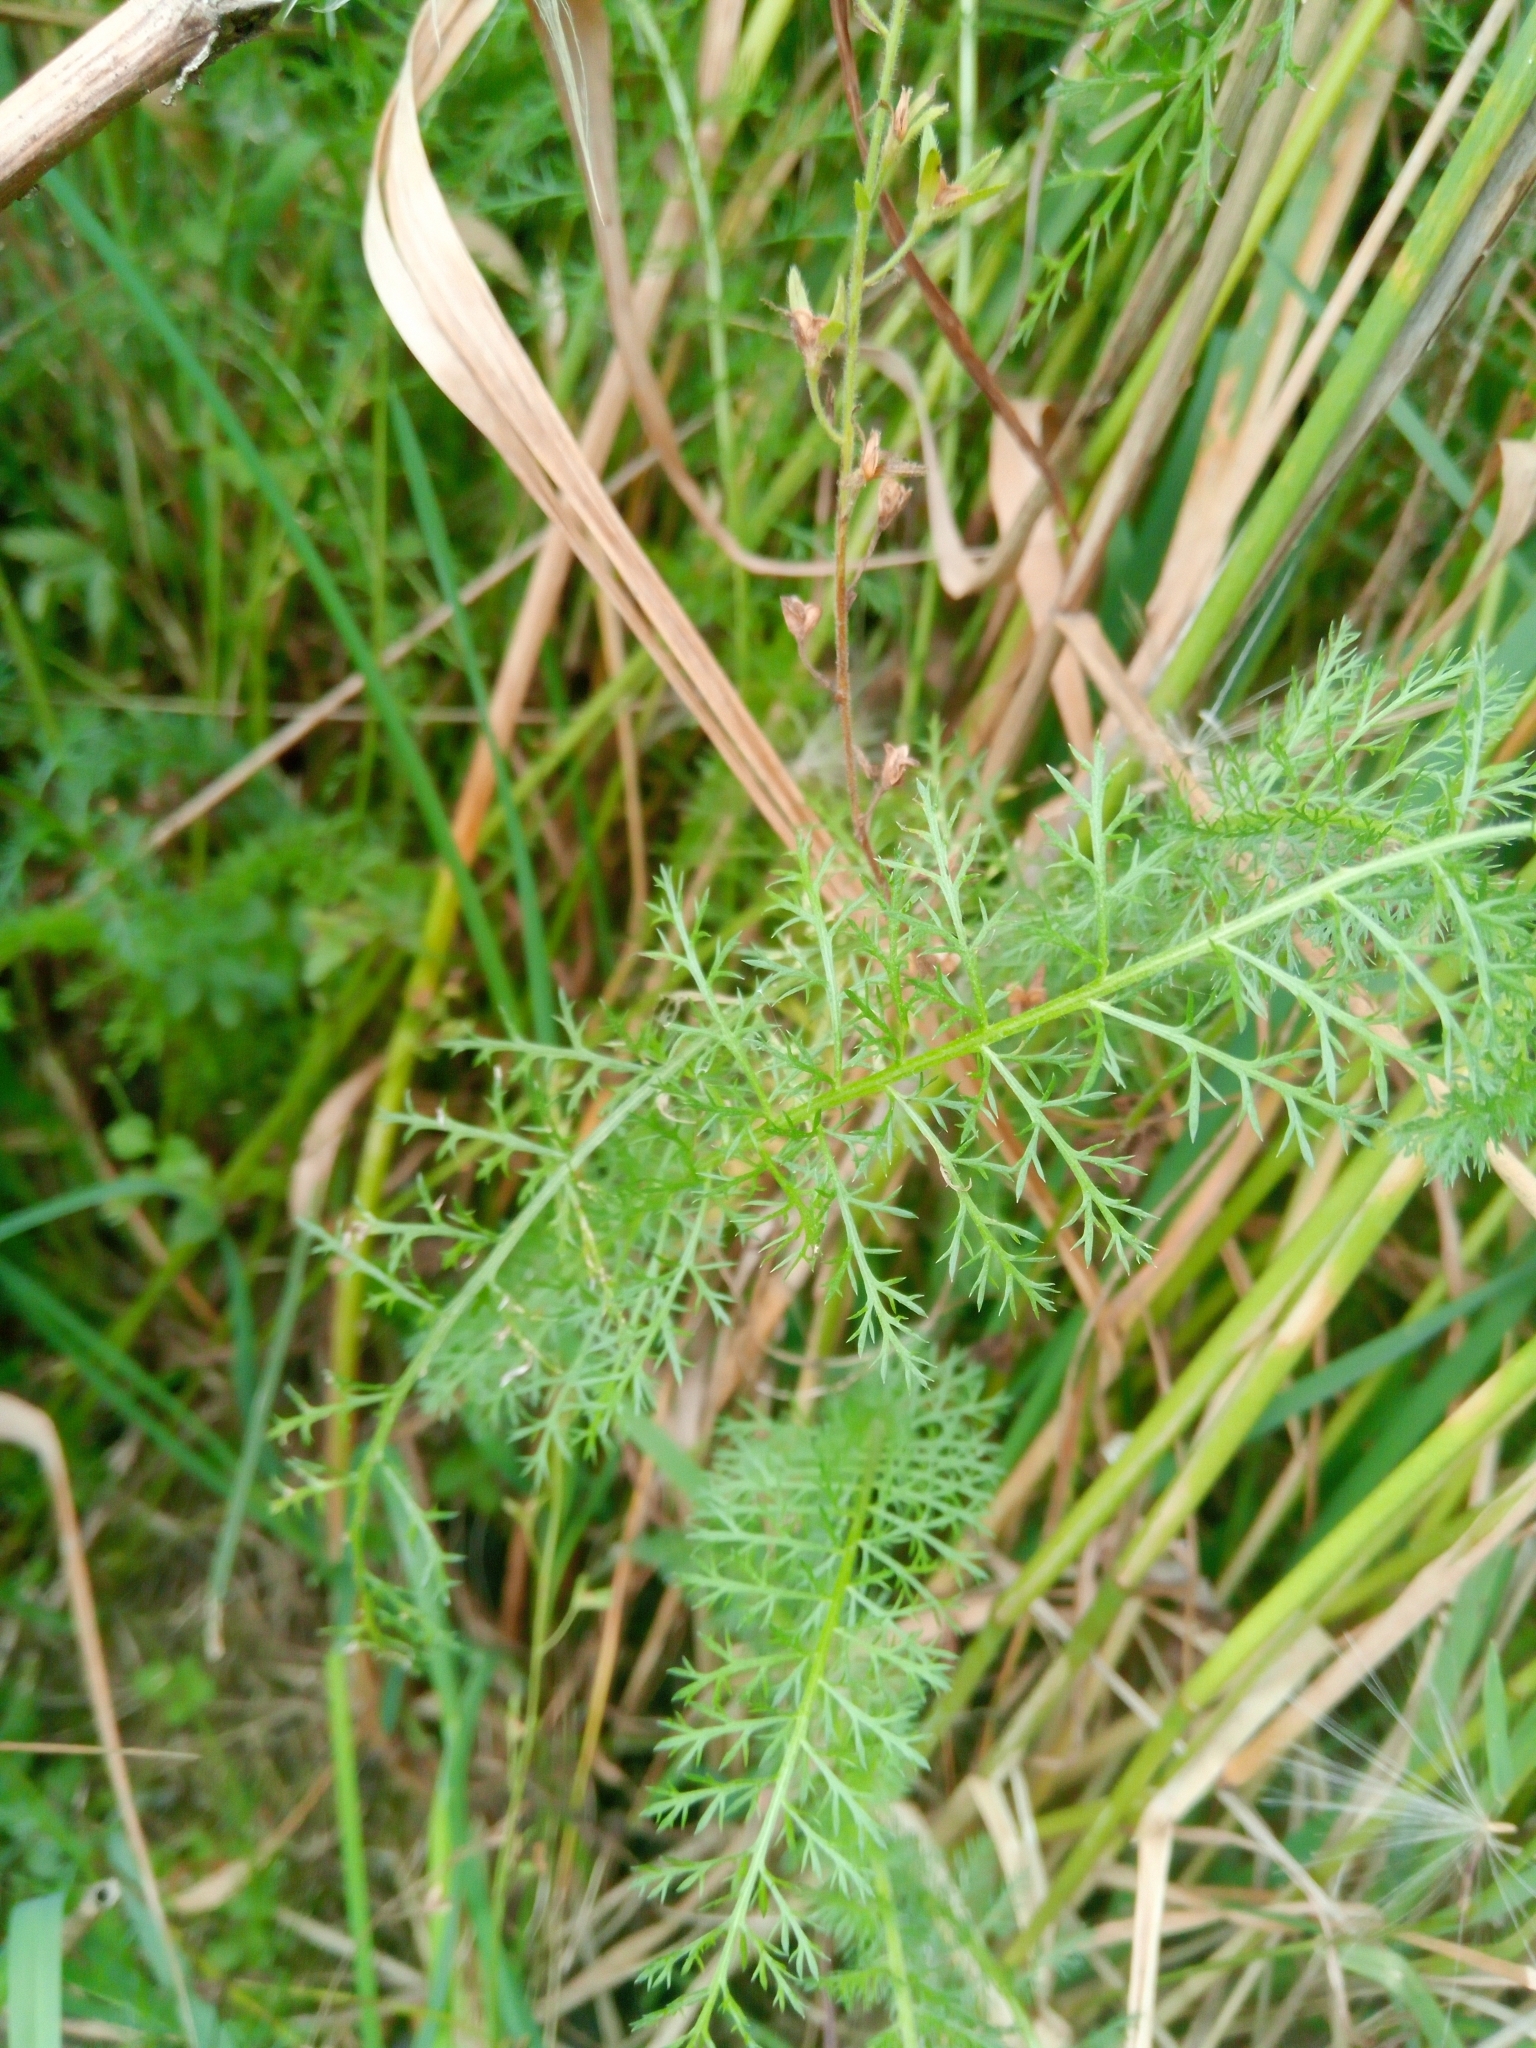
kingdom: Plantae
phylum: Tracheophyta
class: Magnoliopsida
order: Asterales
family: Asteraceae
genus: Achillea
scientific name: Achillea millefolium
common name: Yarrow
